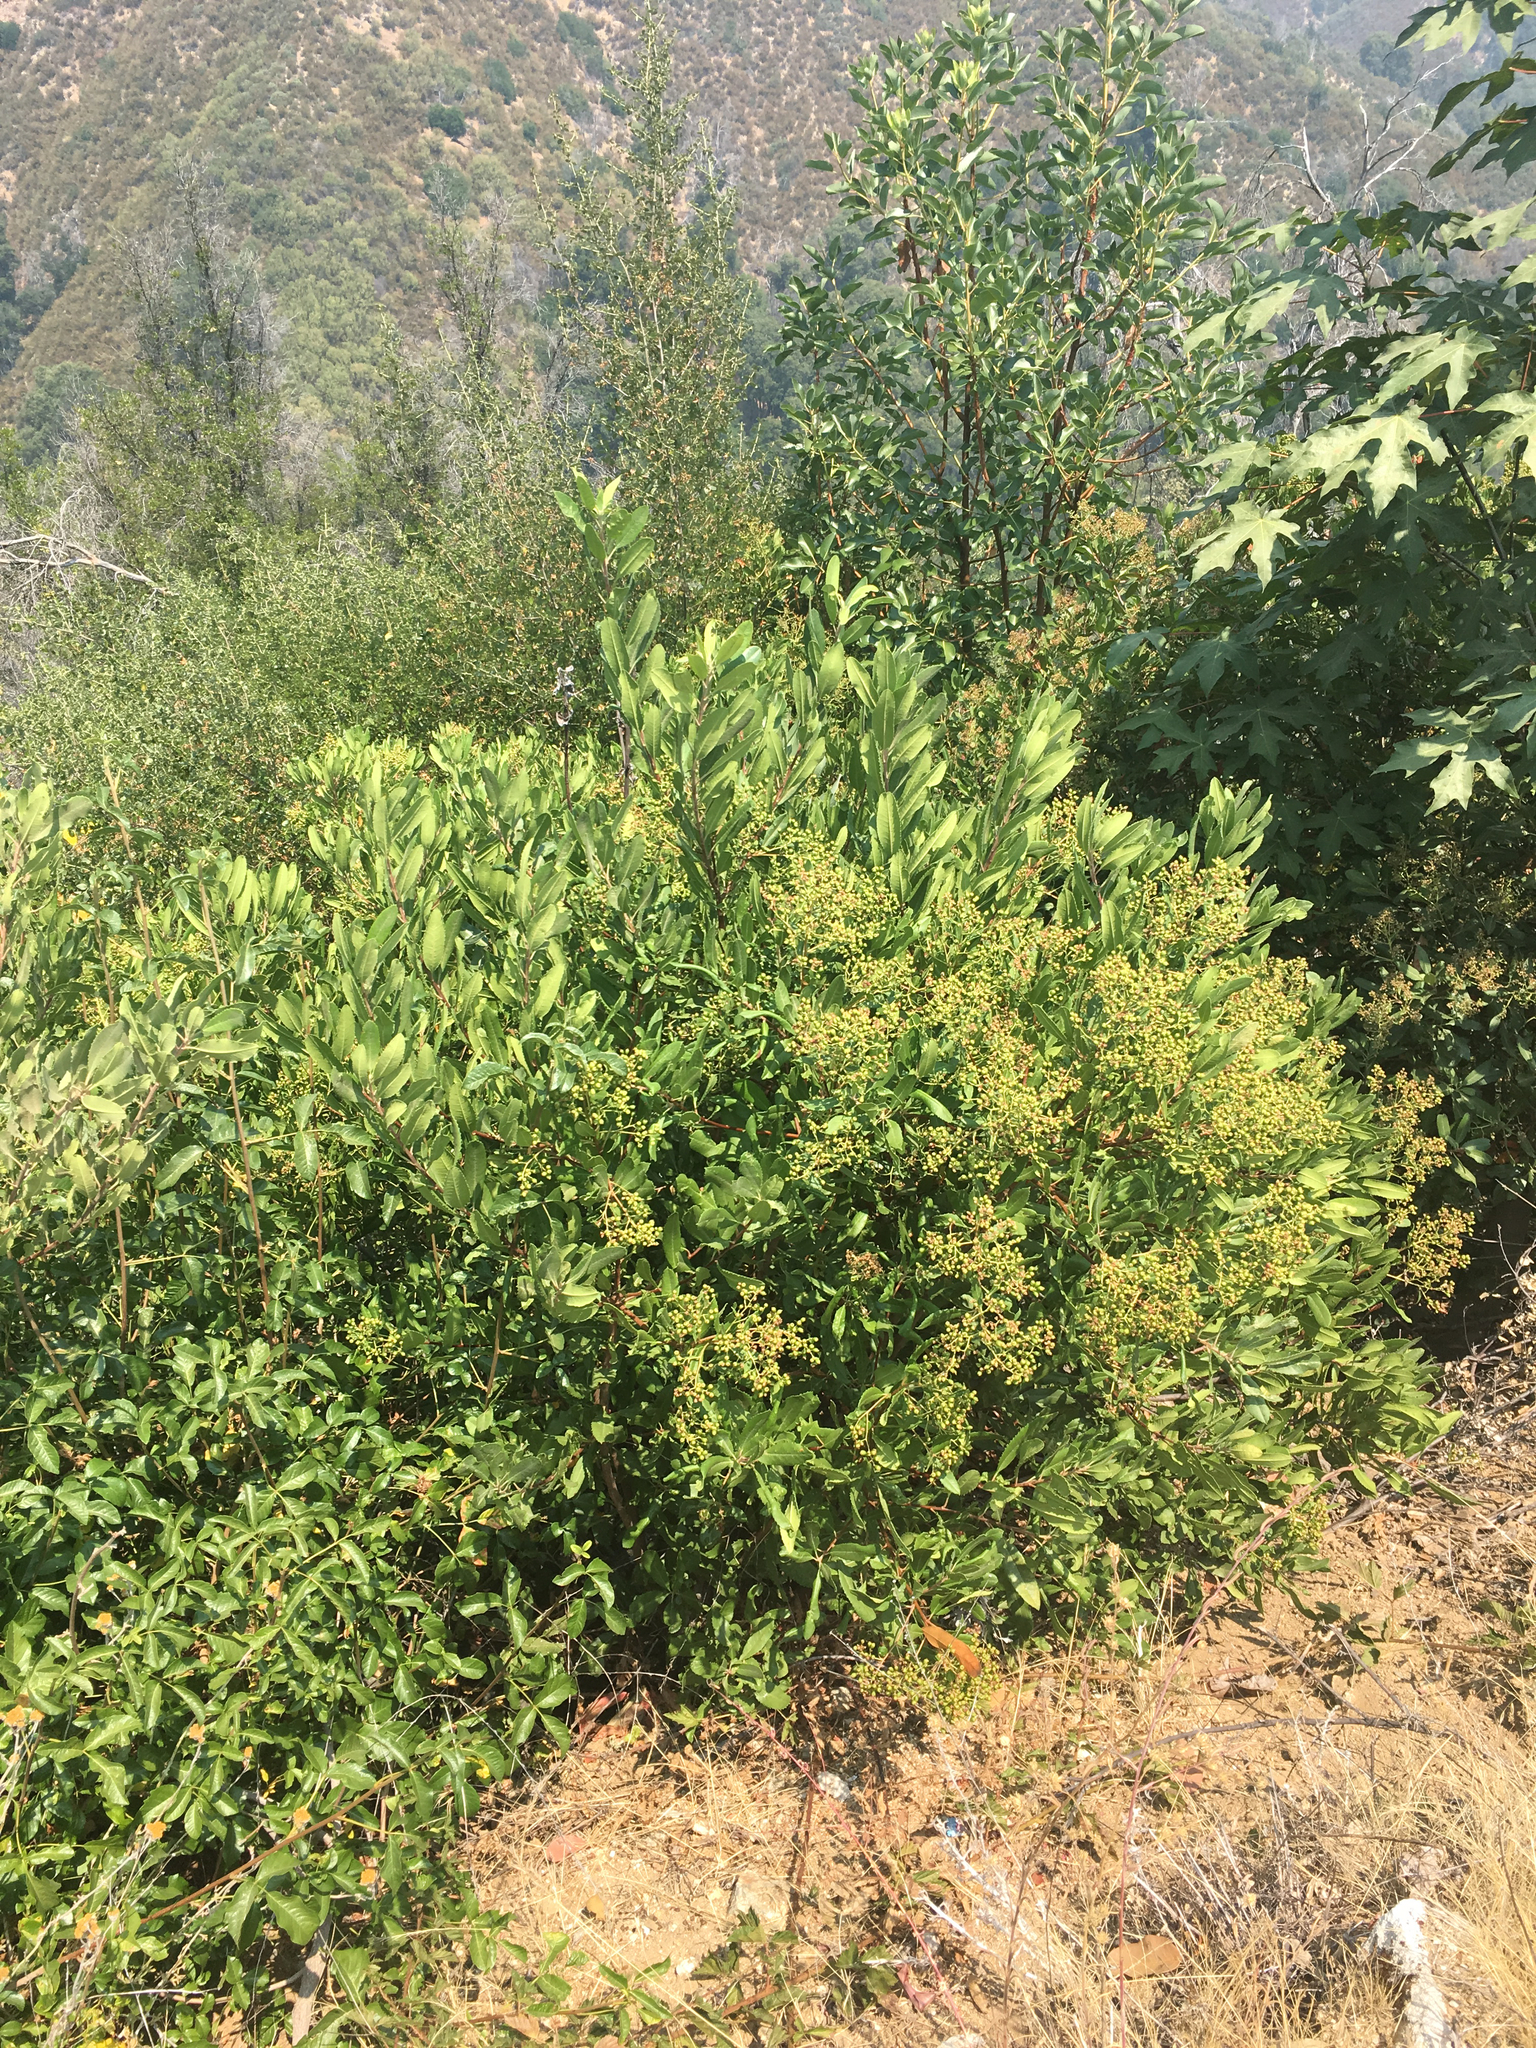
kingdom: Plantae
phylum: Tracheophyta
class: Magnoliopsida
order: Rosales
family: Rosaceae
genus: Heteromeles
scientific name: Heteromeles arbutifolia
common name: California-holly
